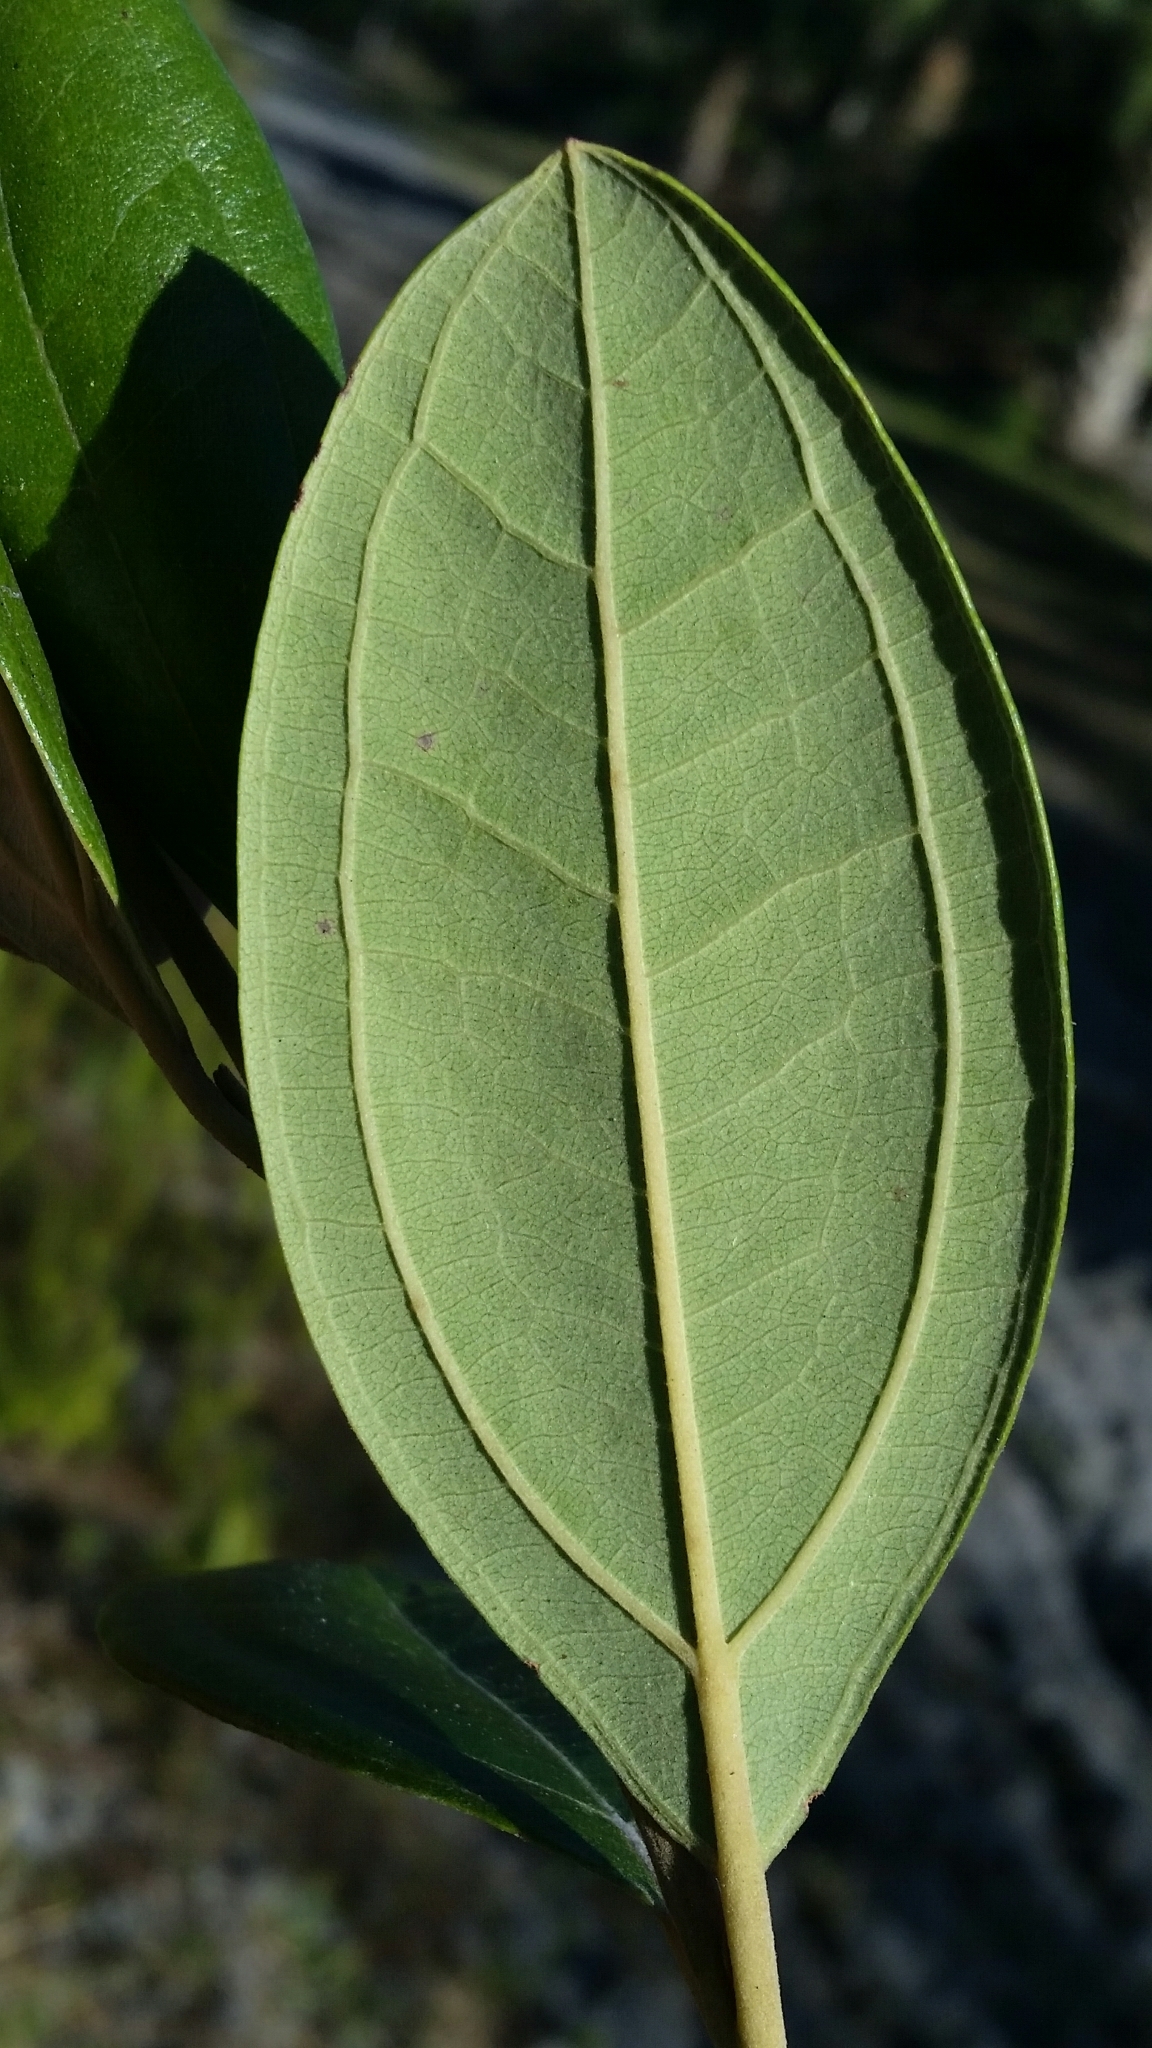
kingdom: Plantae
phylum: Tracheophyta
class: Magnoliopsida
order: Myrtales
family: Myrtaceae
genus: Rhodomyrtus
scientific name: Rhodomyrtus tomentosa
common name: Rose myrtle
